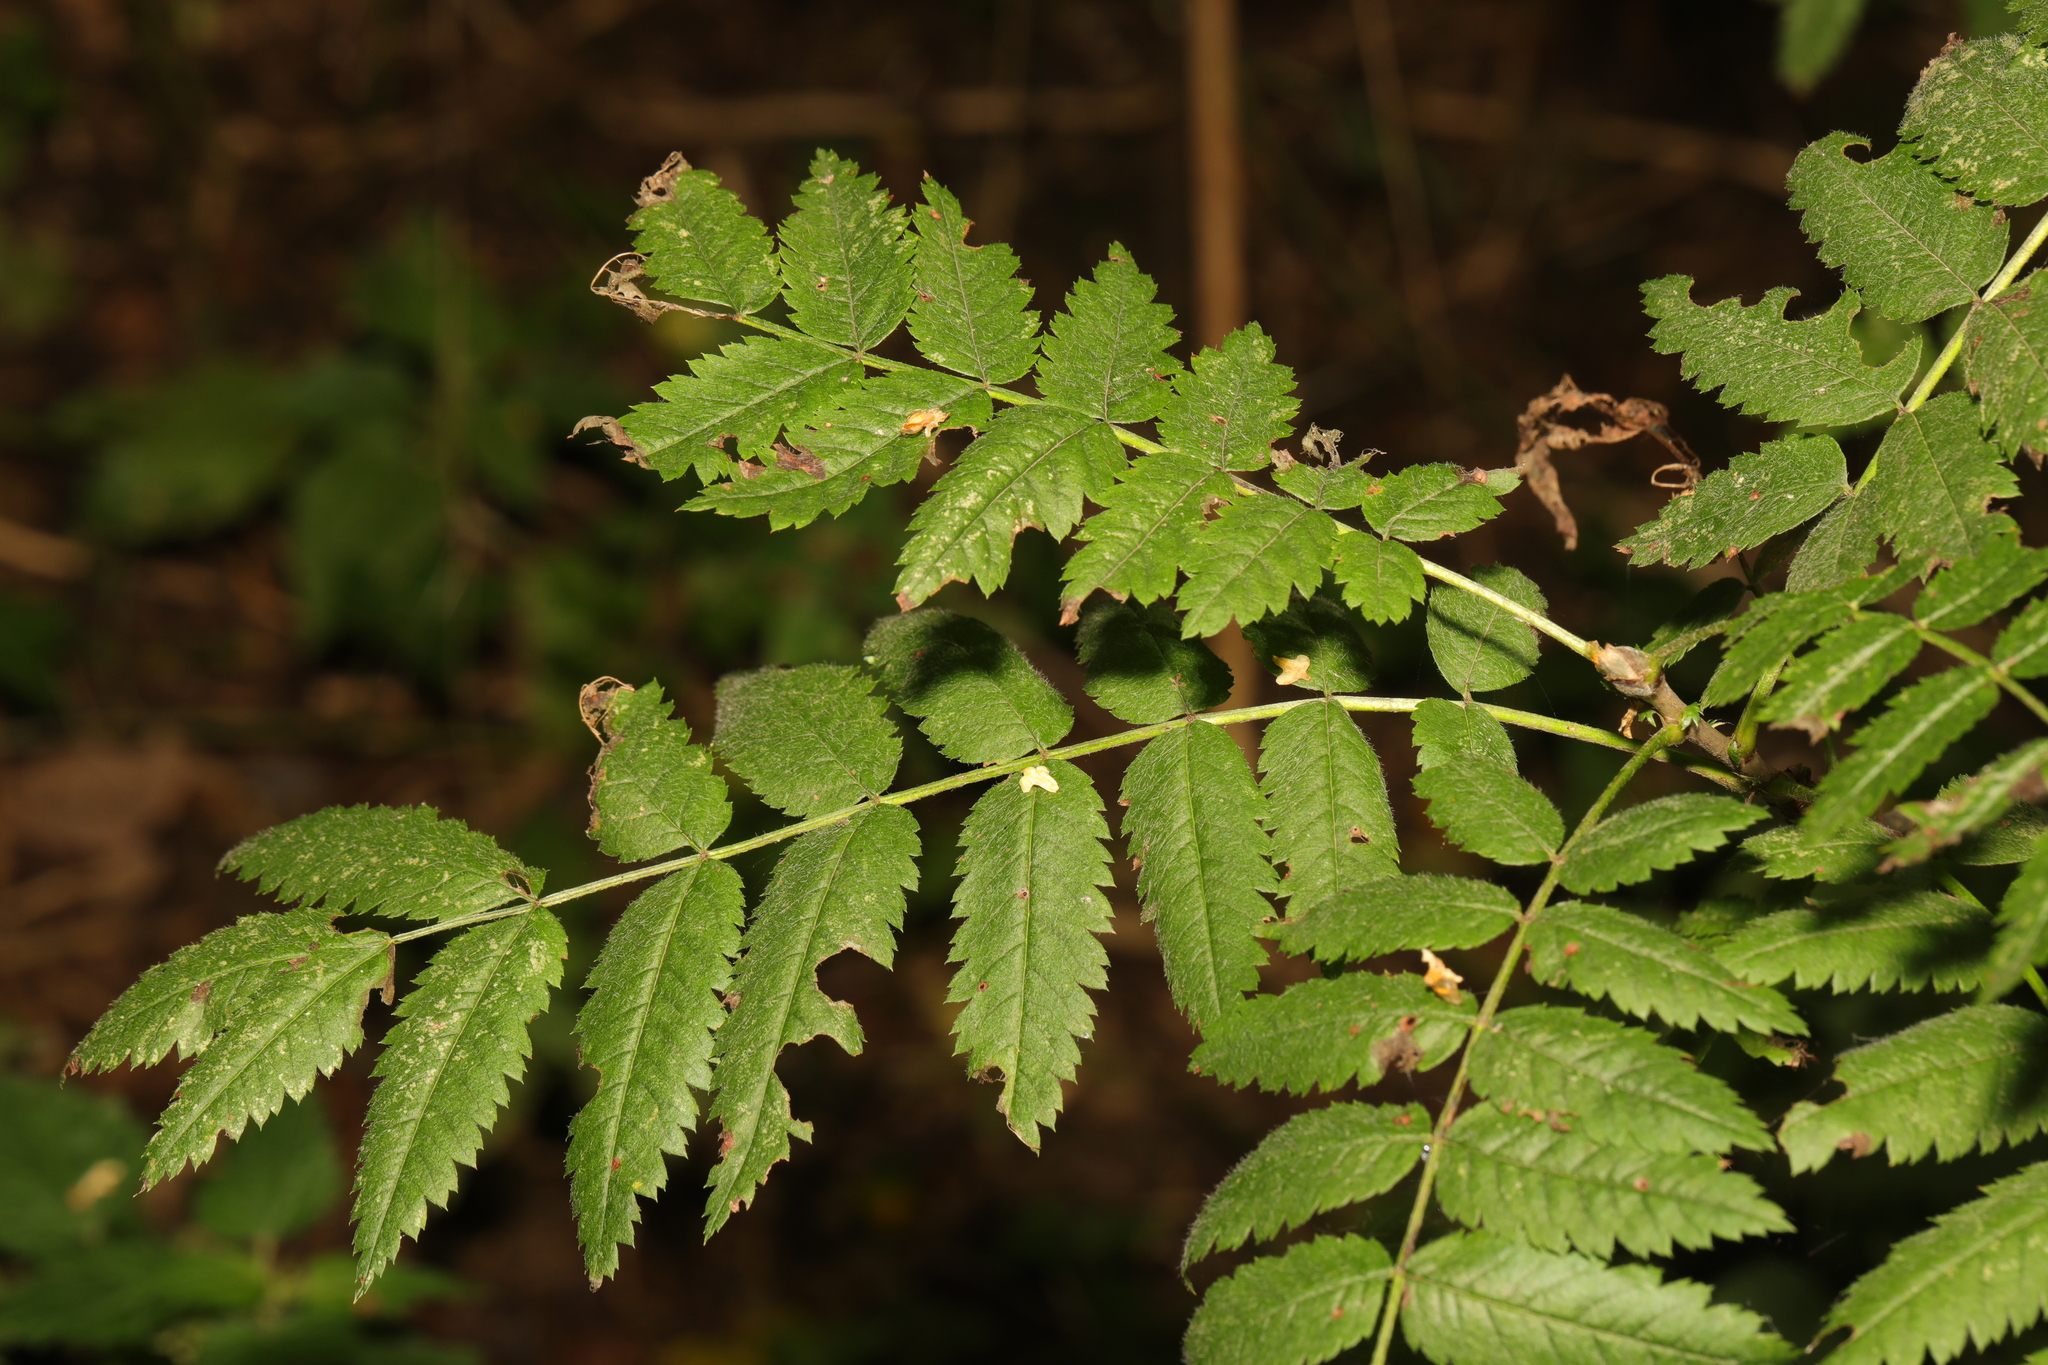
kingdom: Plantae
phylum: Tracheophyta
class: Magnoliopsida
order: Rosales
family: Rosaceae
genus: Sorbus
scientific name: Sorbus aucuparia
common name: Rowan
